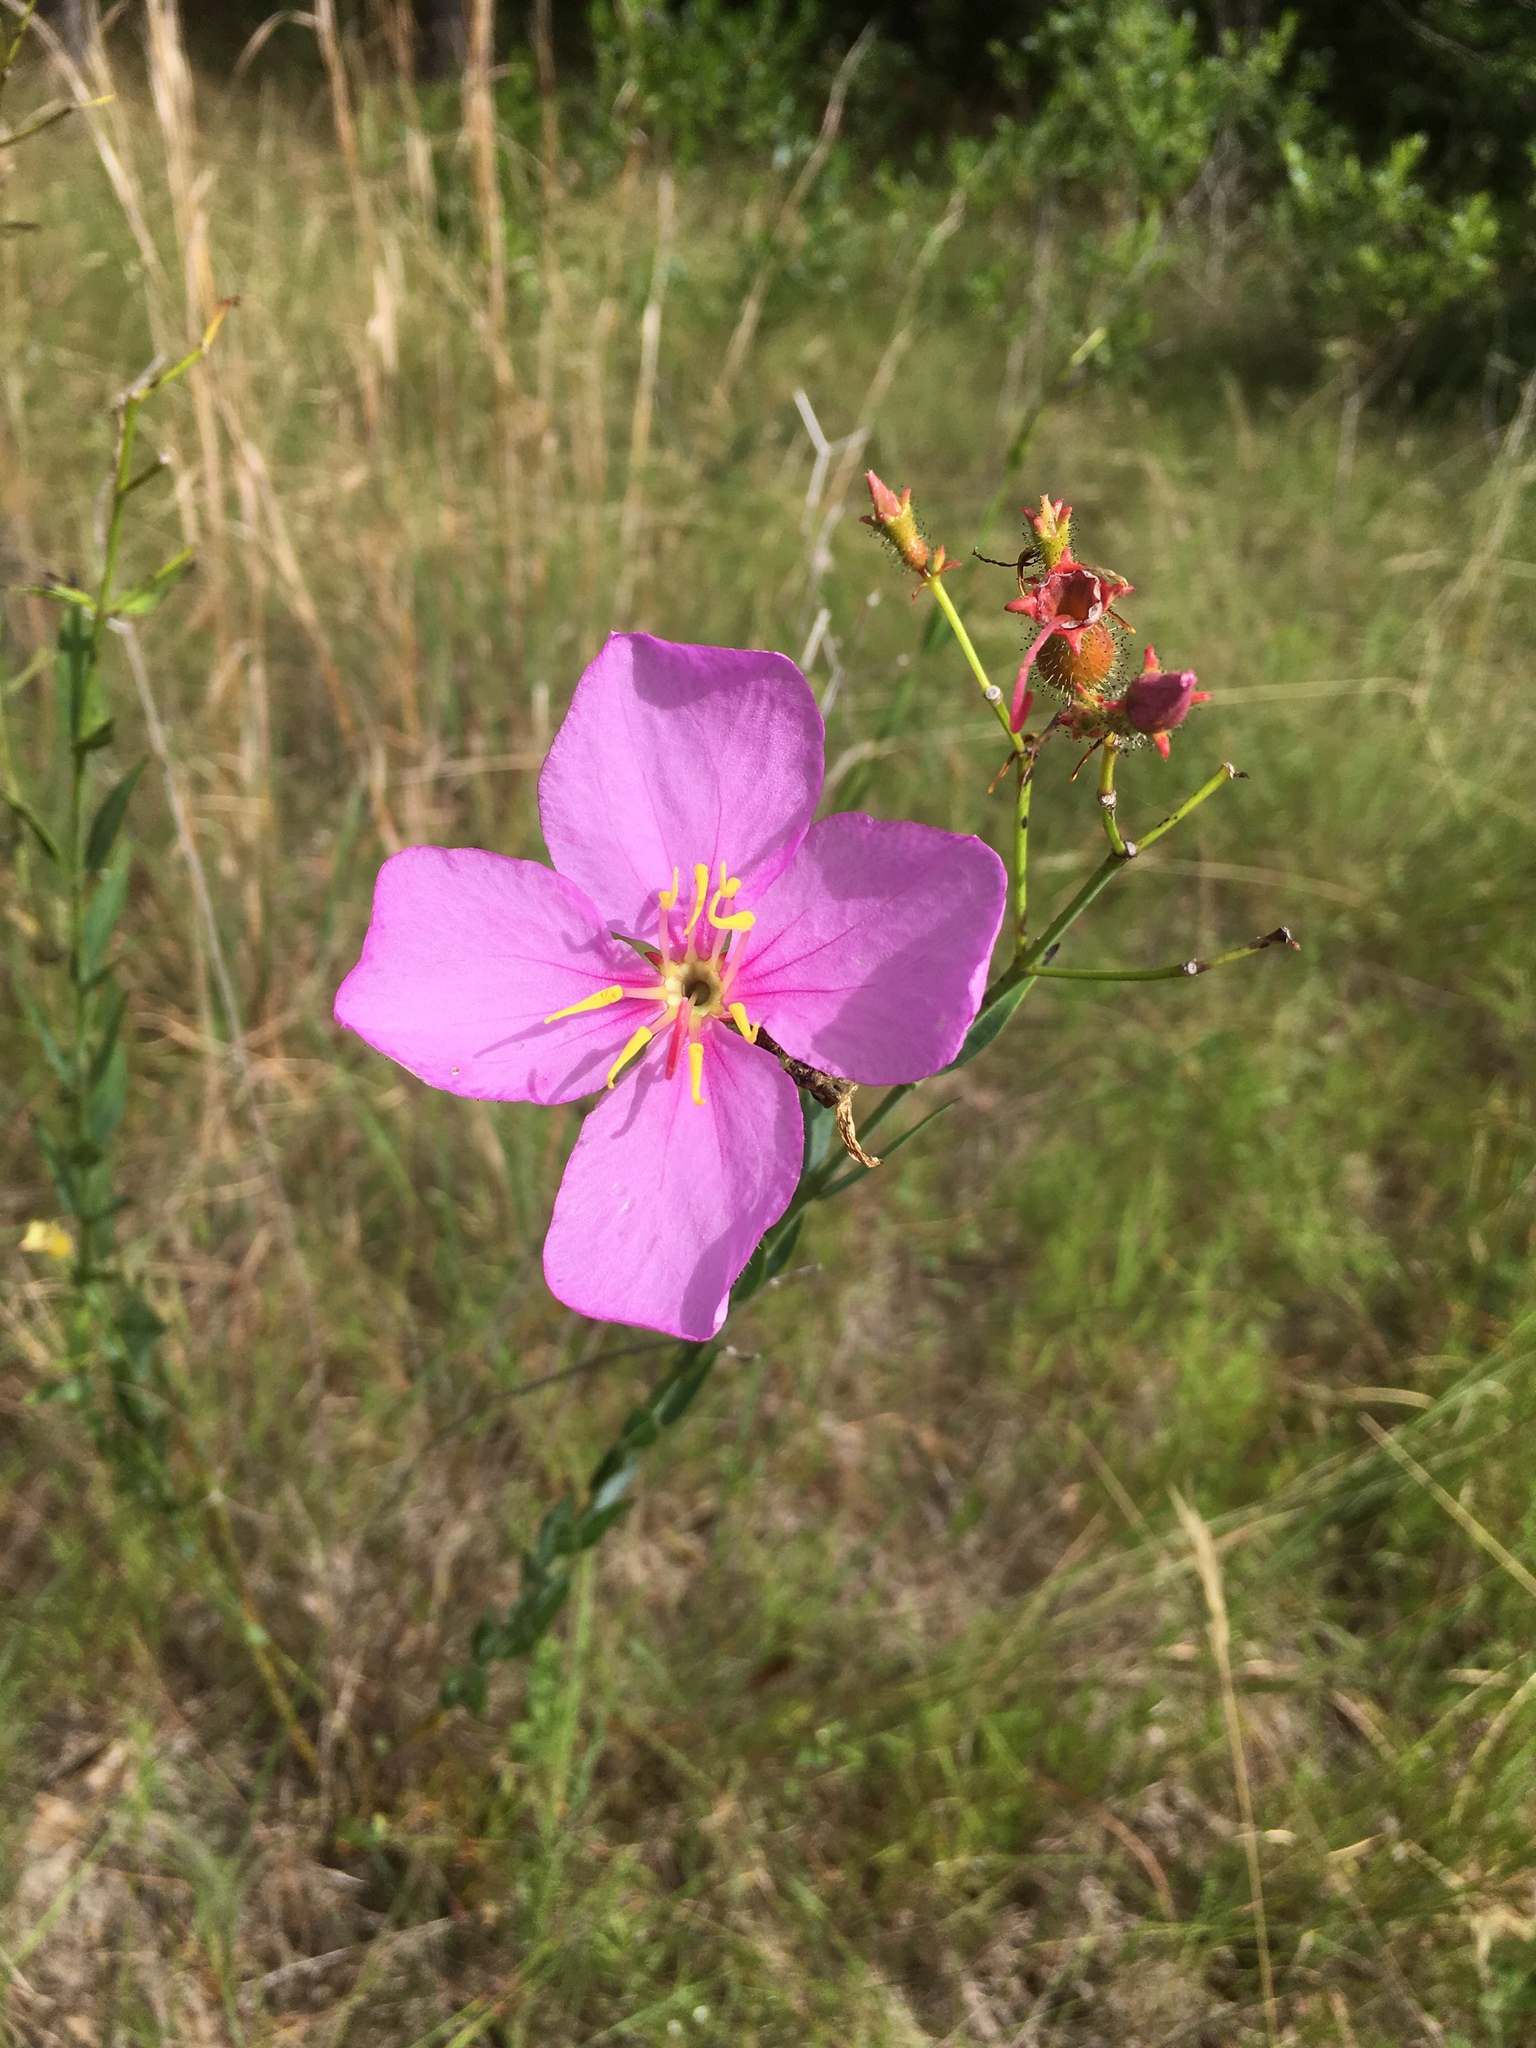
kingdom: Plantae
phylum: Tracheophyta
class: Magnoliopsida
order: Myrtales
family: Melastomataceae
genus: Rhexia
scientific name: Rhexia alifanus
